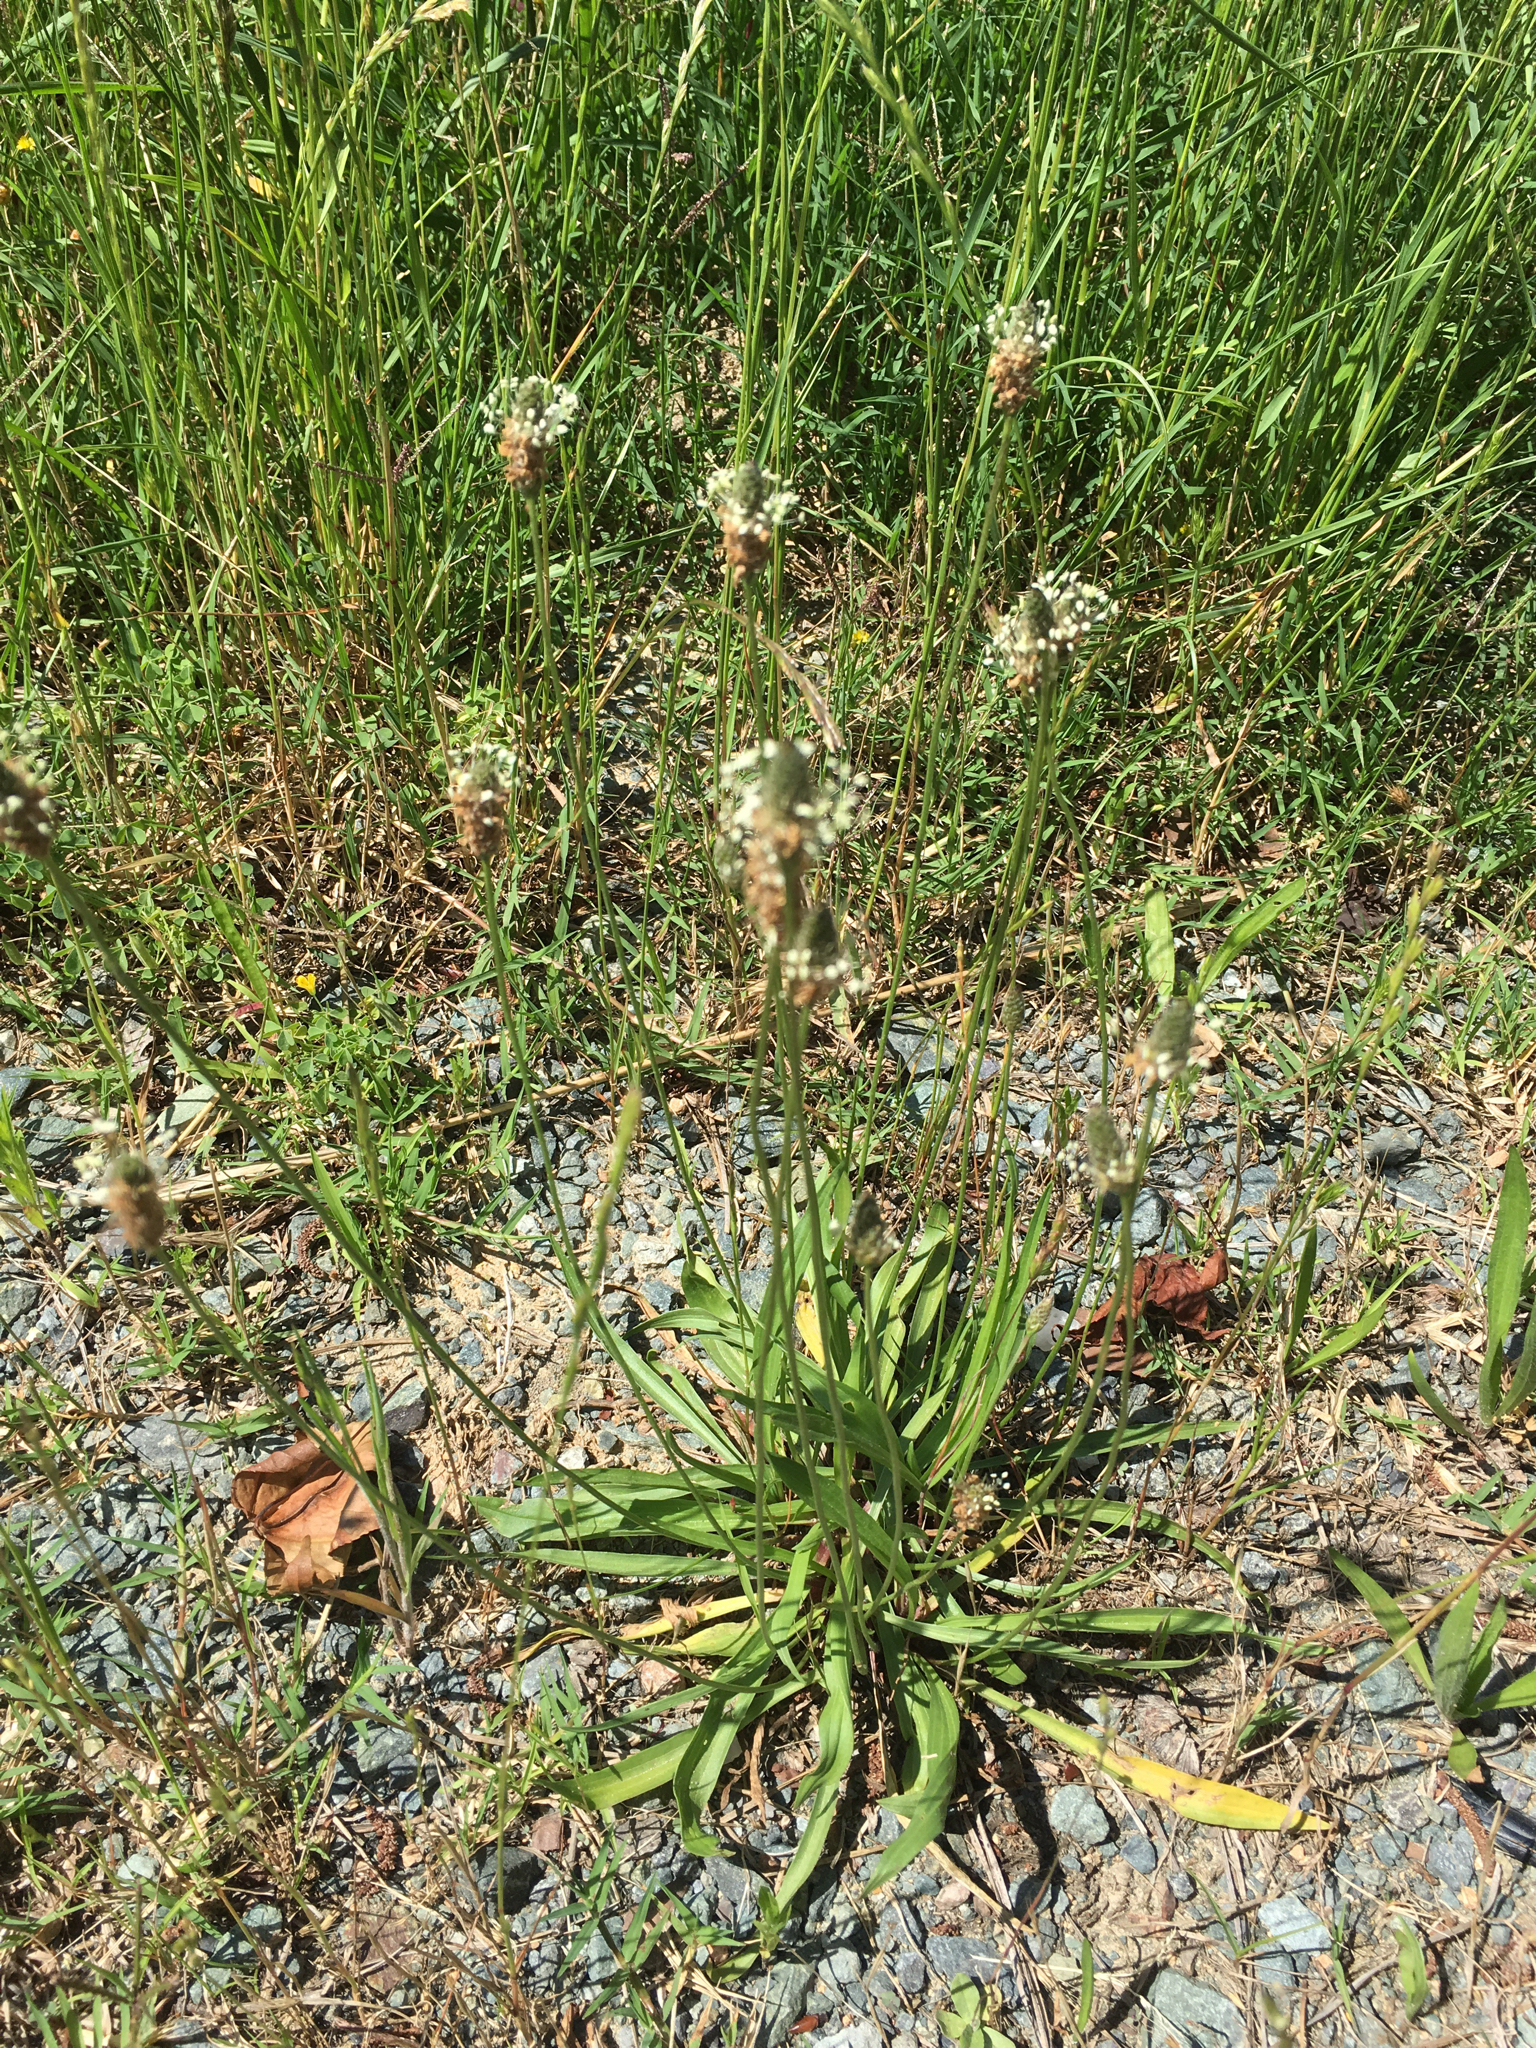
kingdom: Plantae
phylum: Tracheophyta
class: Magnoliopsida
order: Lamiales
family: Plantaginaceae
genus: Plantago
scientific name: Plantago lanceolata
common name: Ribwort plantain
